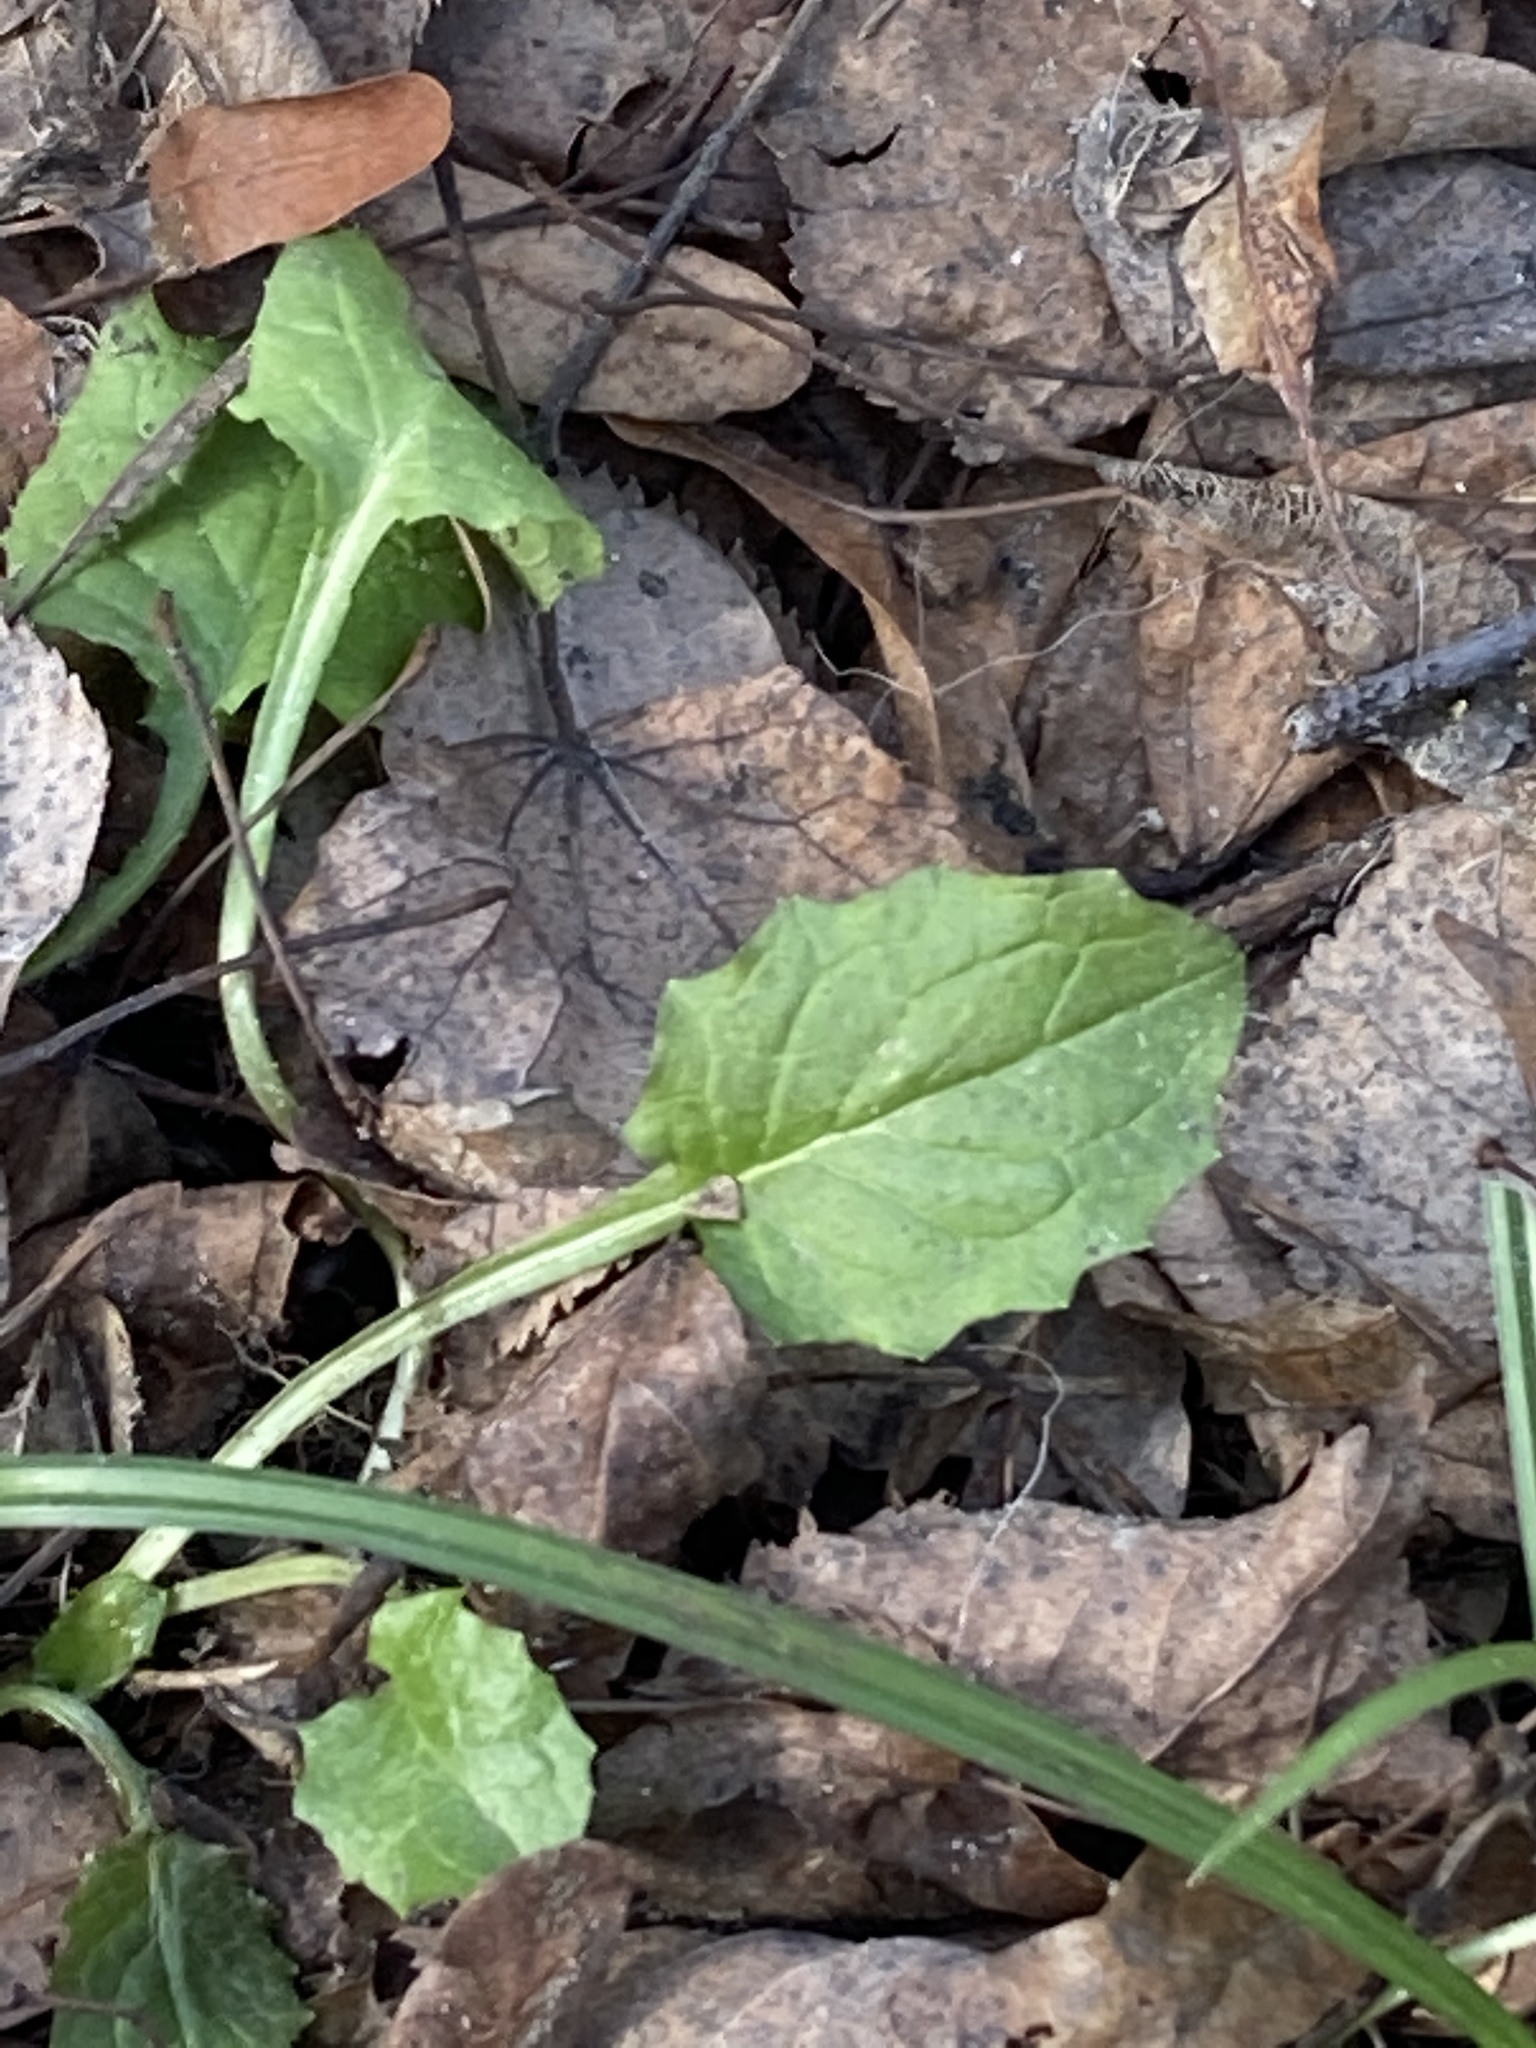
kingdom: Plantae
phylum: Tracheophyta
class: Magnoliopsida
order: Asterales
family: Asteraceae
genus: Lapsana
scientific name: Lapsana communis
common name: Nipplewort
